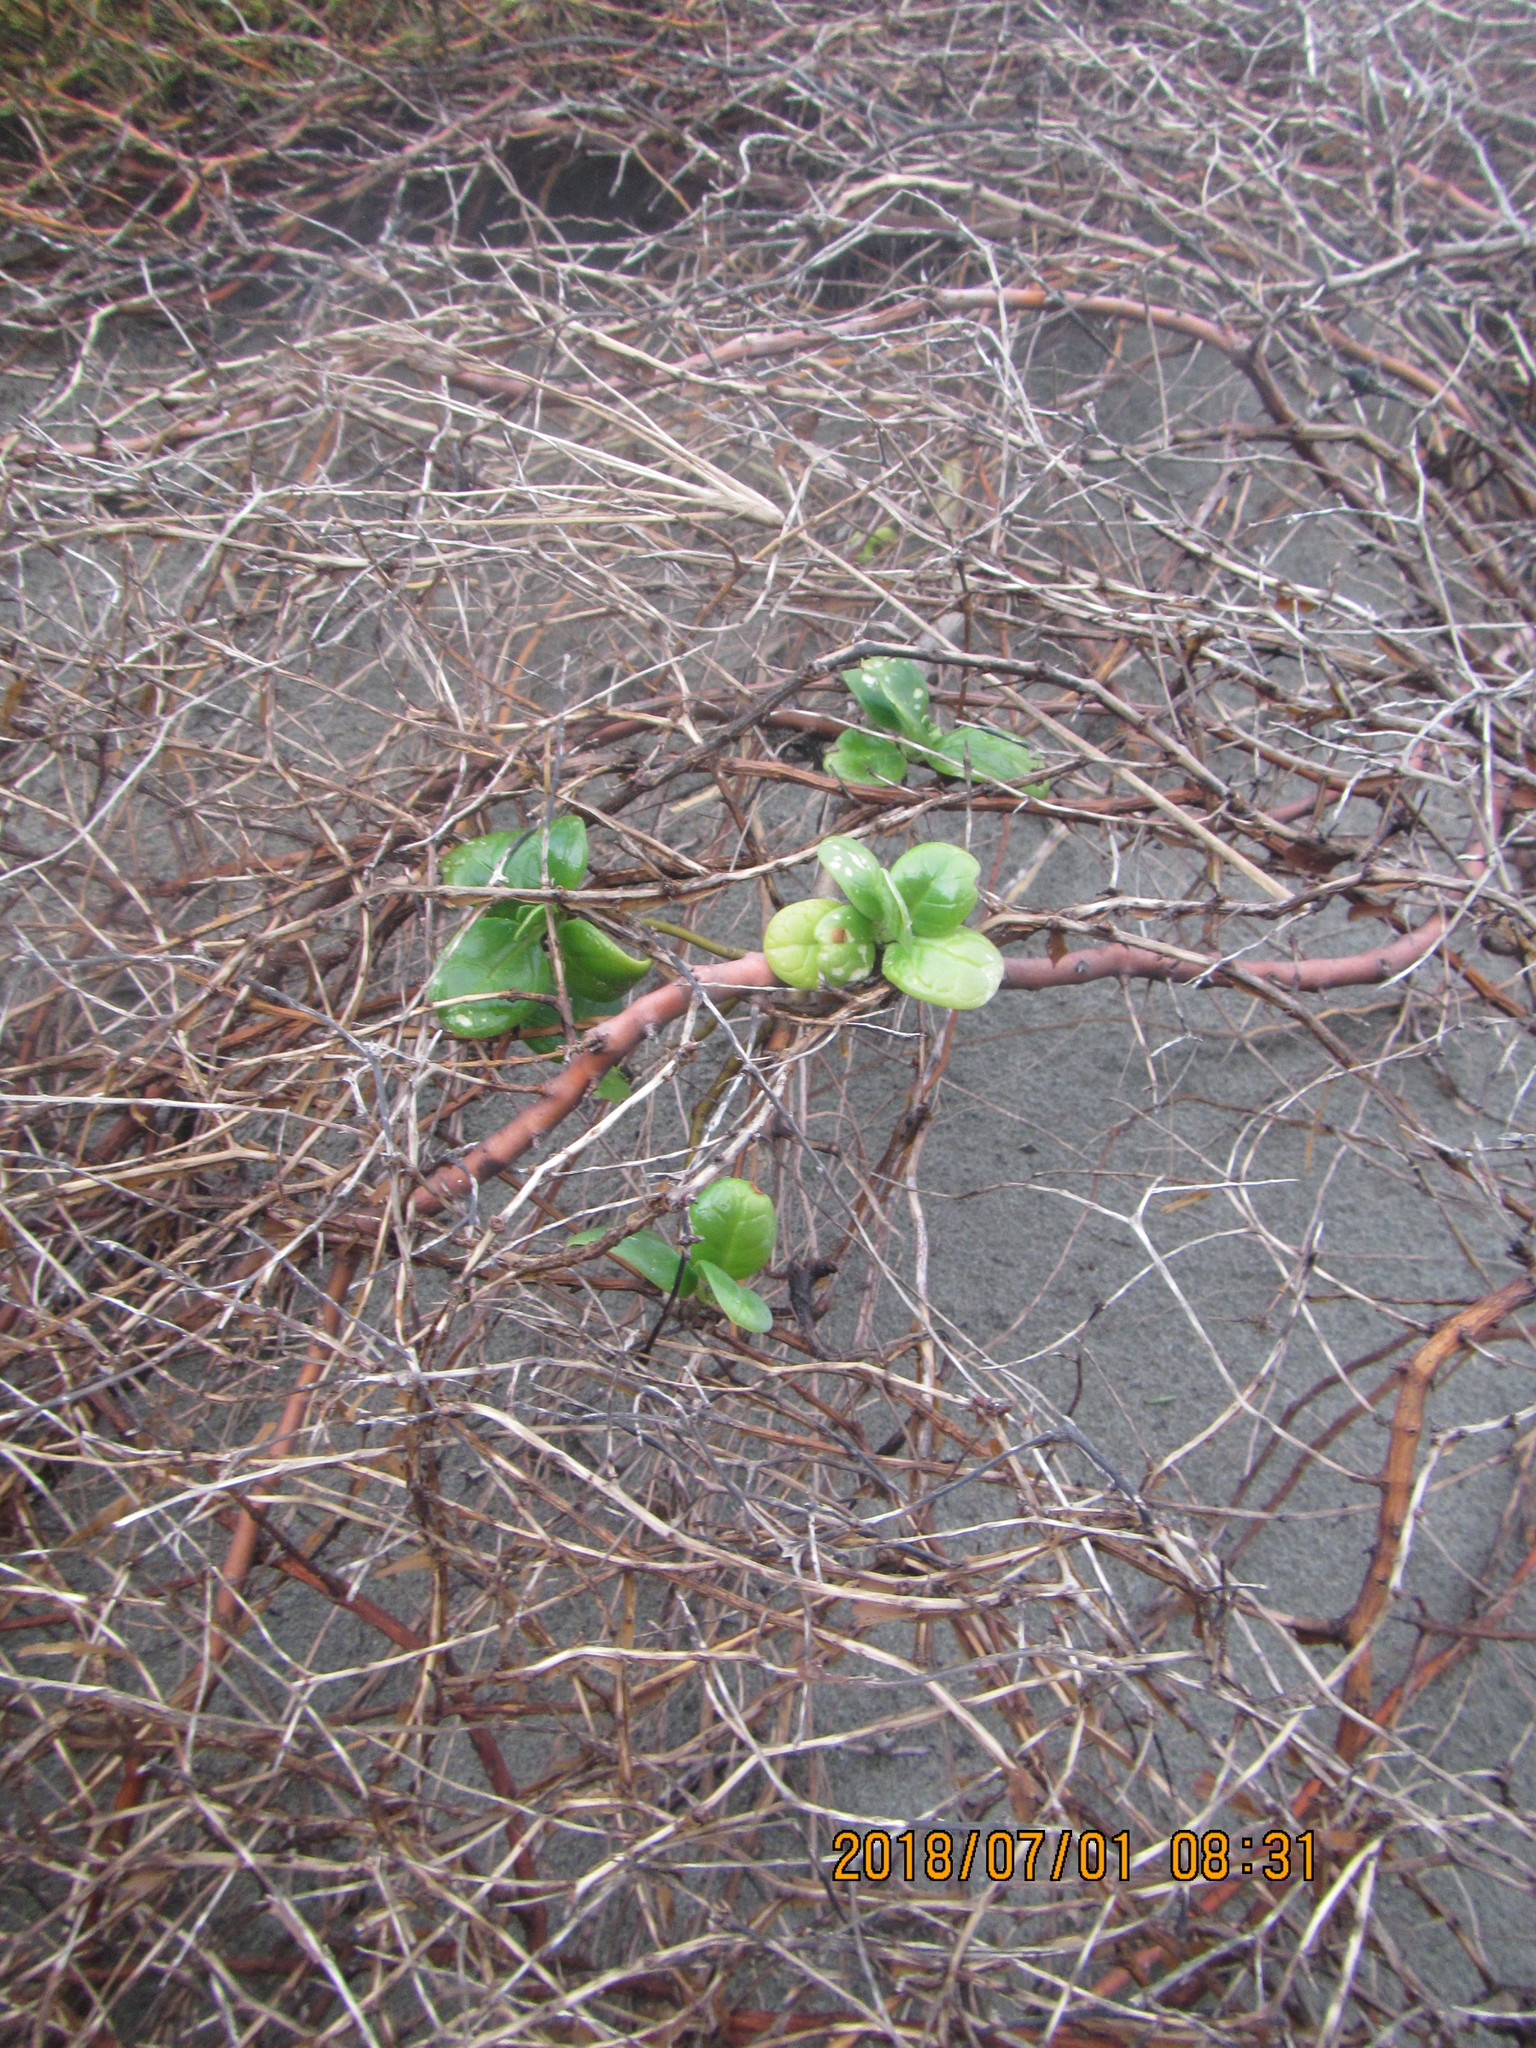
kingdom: Plantae
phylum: Tracheophyta
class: Magnoliopsida
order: Gentianales
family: Rubiaceae
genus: Coprosma
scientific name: Coprosma acerosa
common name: Sand coprosma
